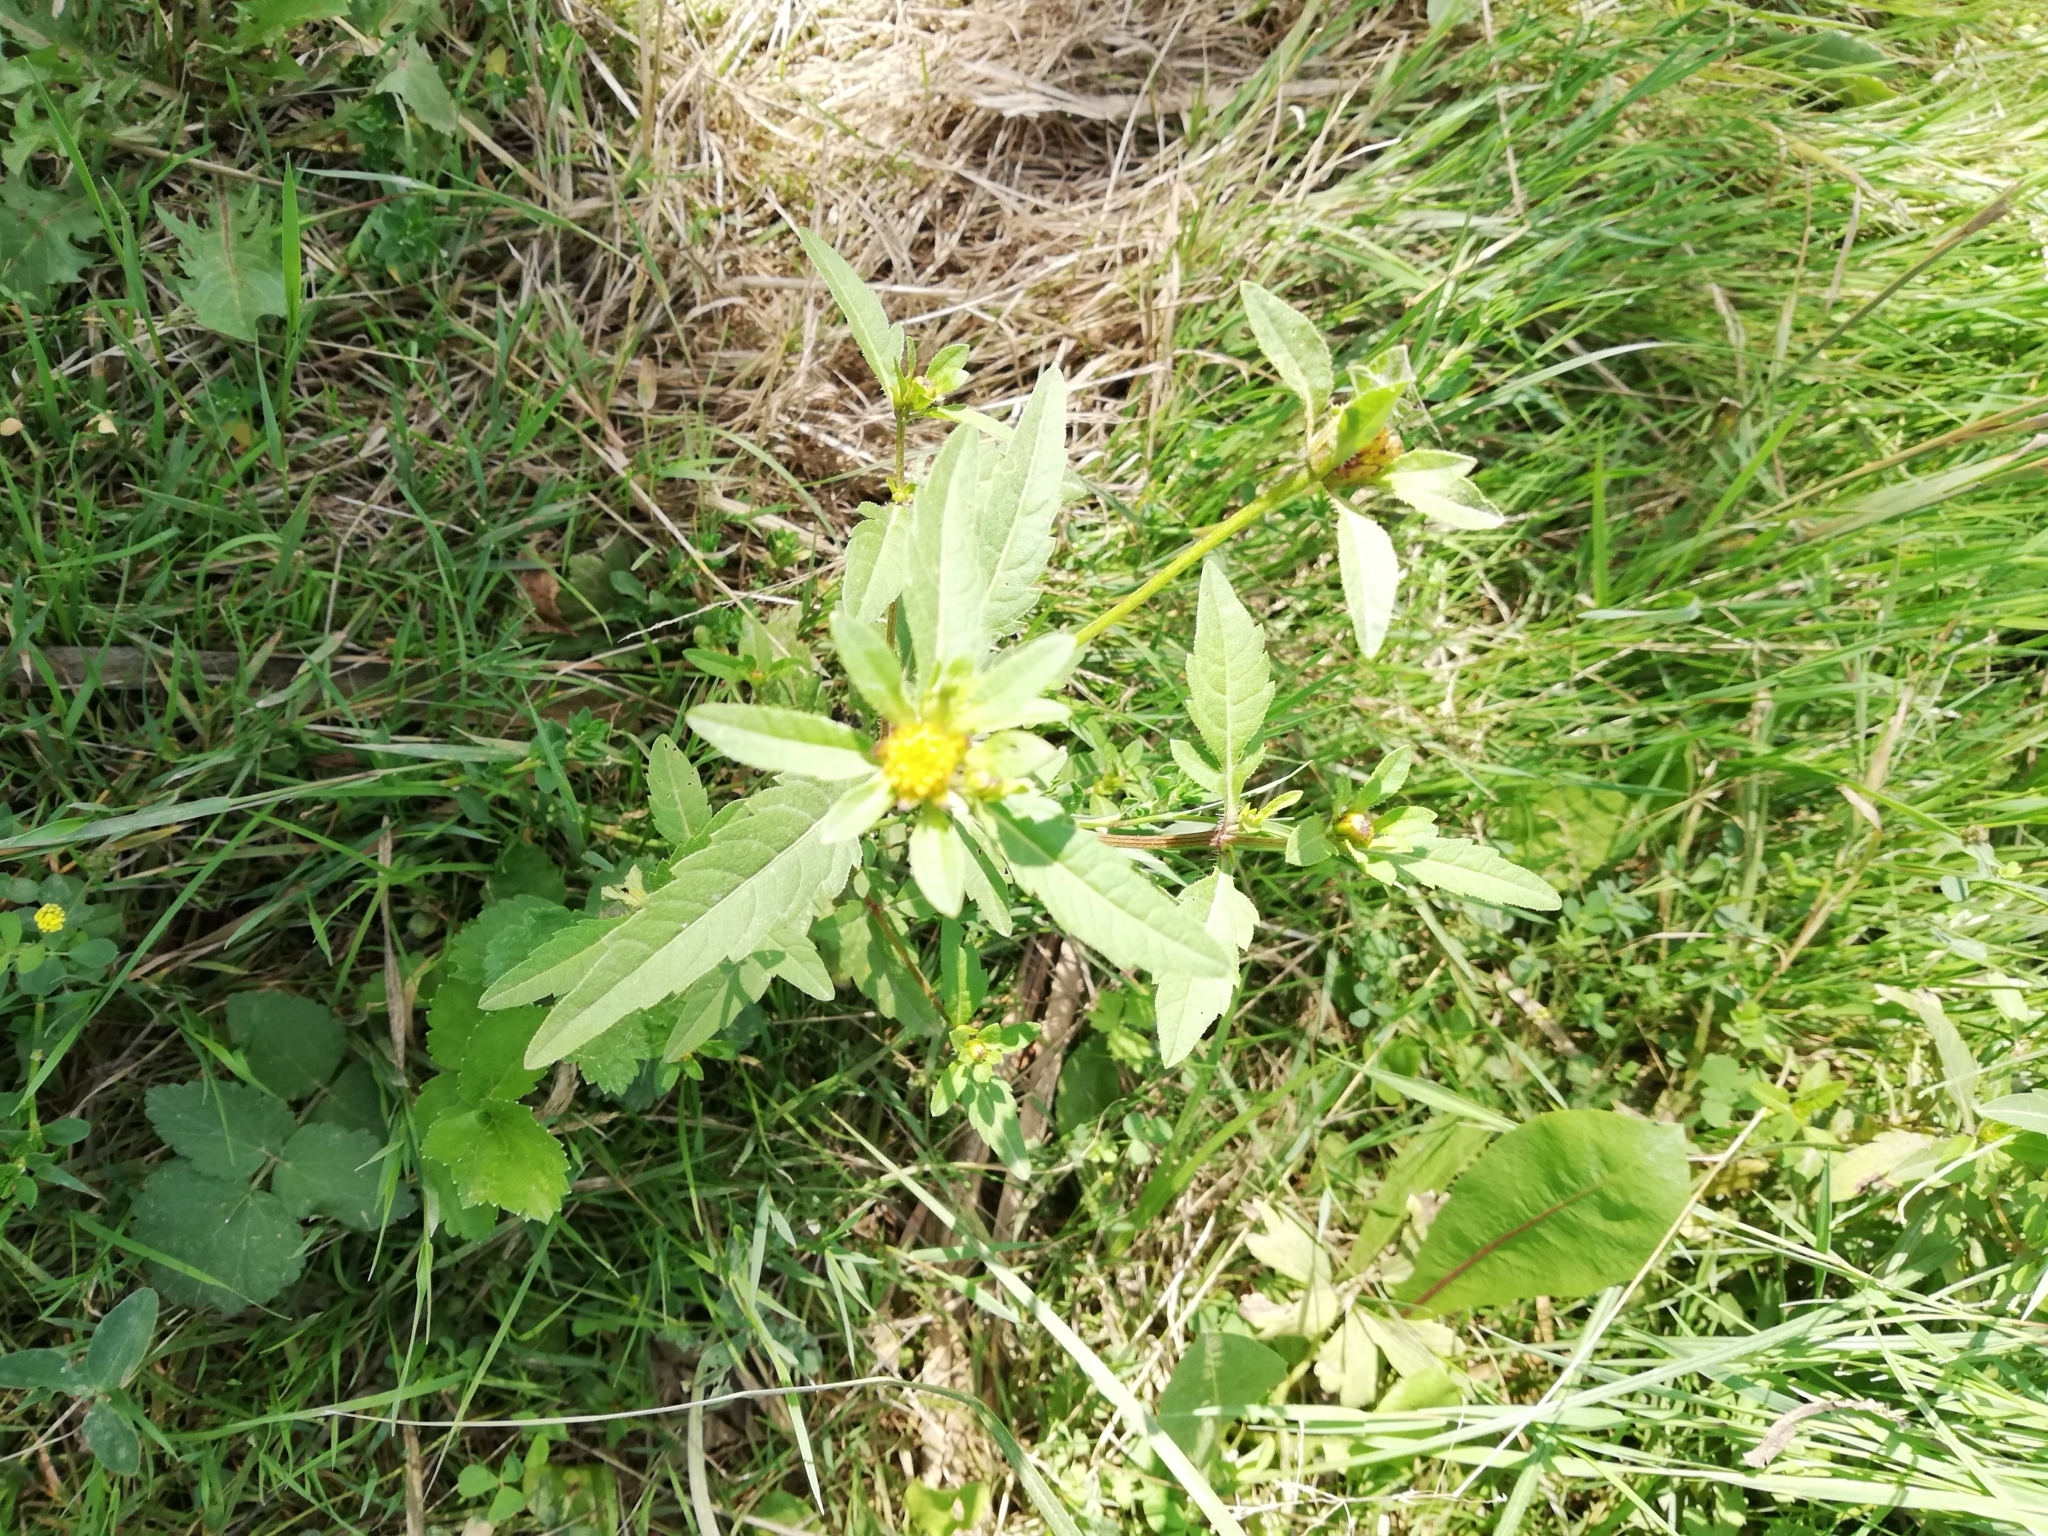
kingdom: Plantae
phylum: Tracheophyta
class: Magnoliopsida
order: Asterales
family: Asteraceae
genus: Bidens
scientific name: Bidens tripartita
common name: Trifid bur-marigold
